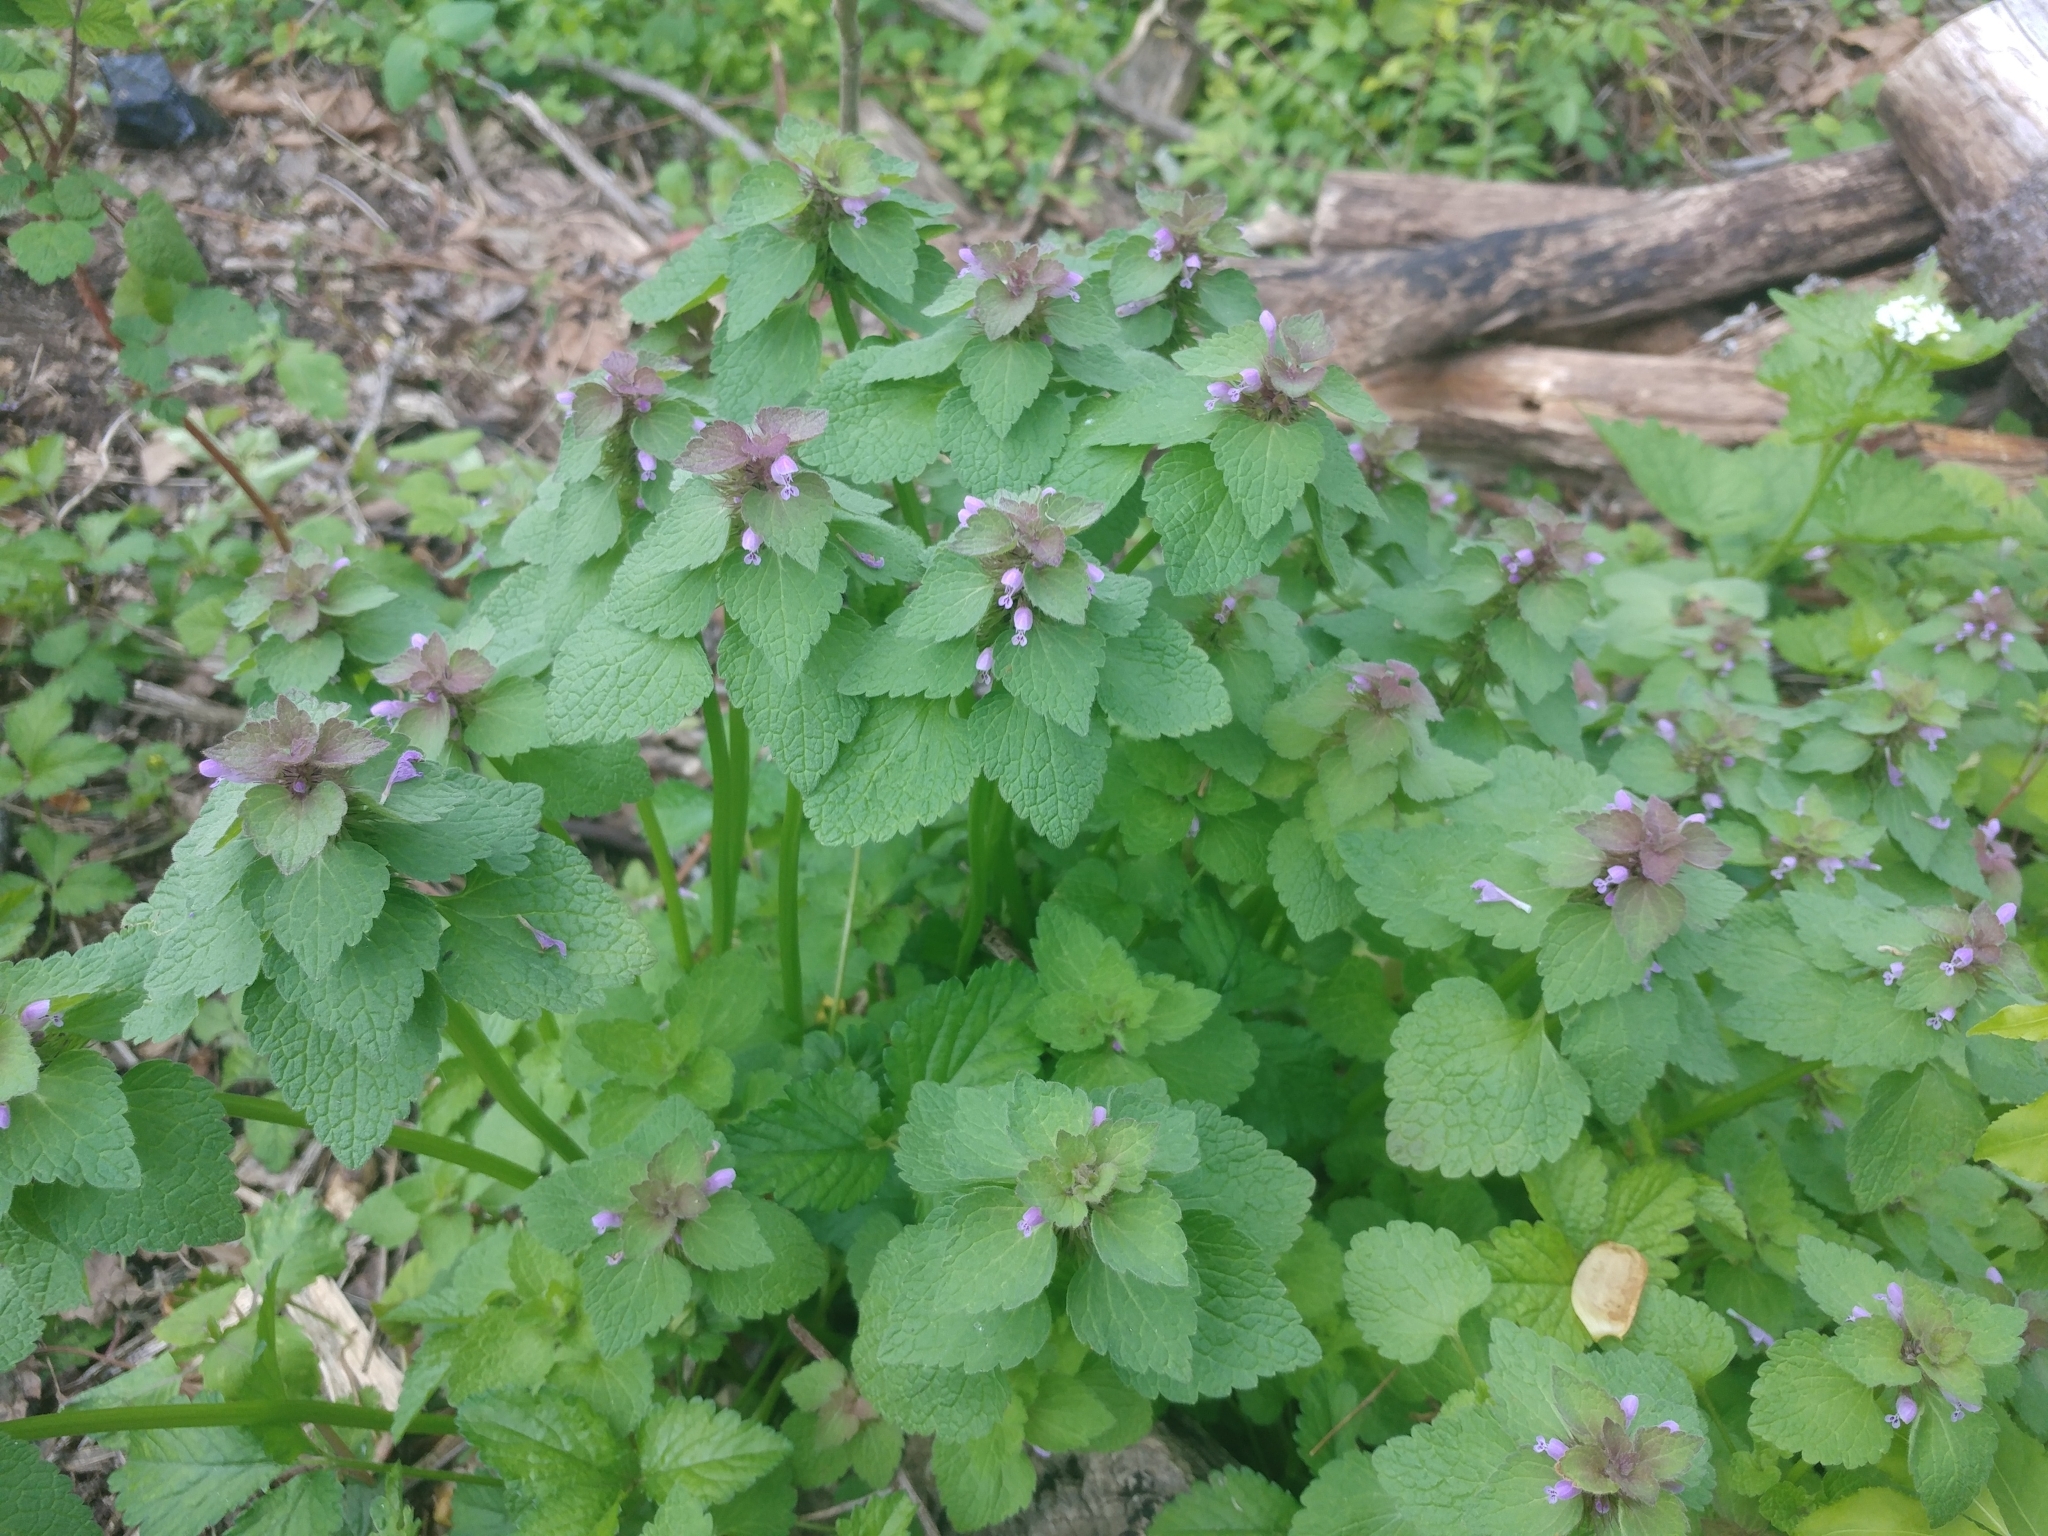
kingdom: Plantae
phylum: Tracheophyta
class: Magnoliopsida
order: Lamiales
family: Lamiaceae
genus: Lamium
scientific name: Lamium purpureum
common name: Red dead-nettle
